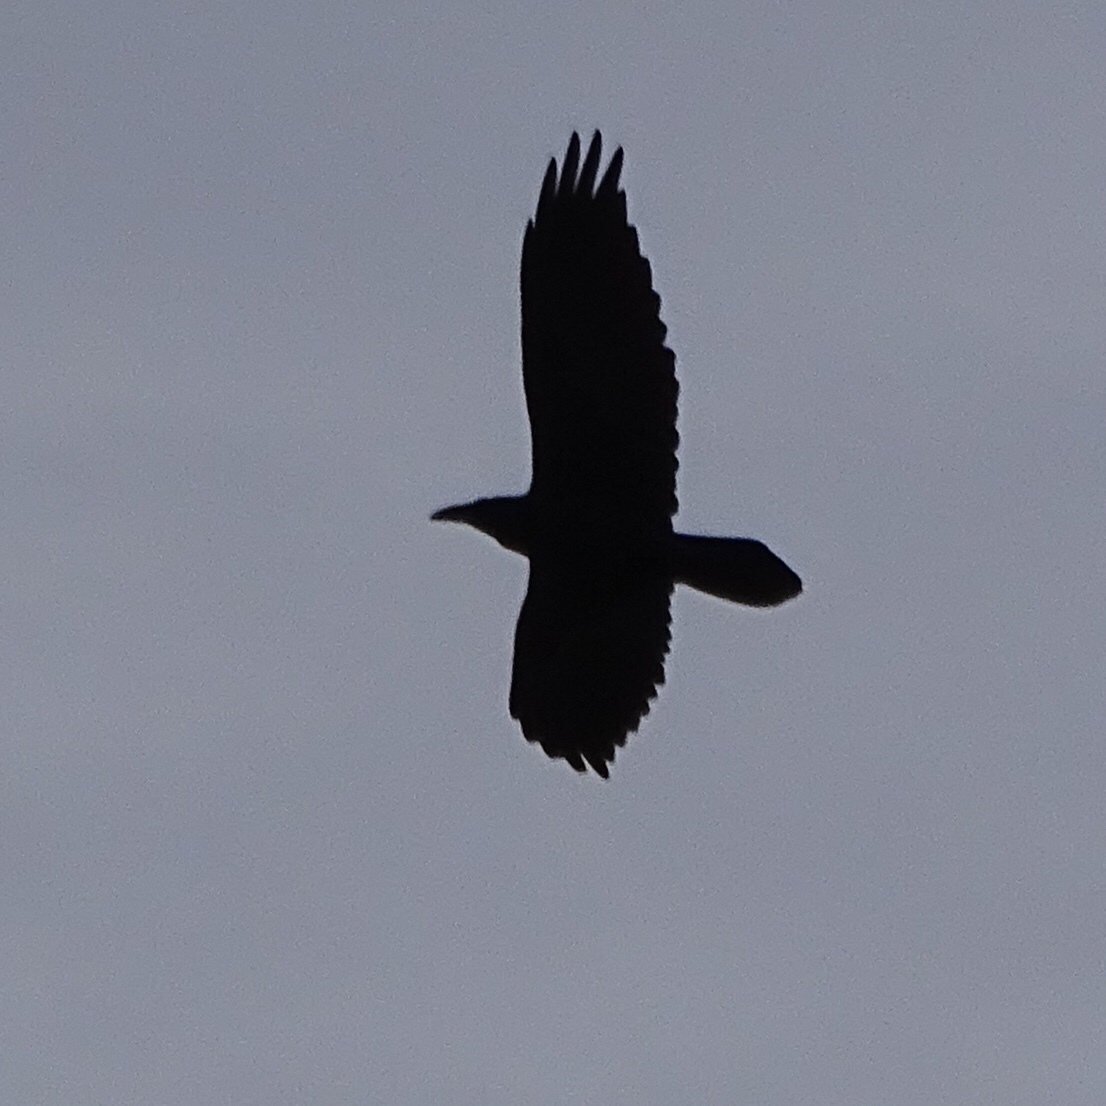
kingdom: Animalia
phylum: Chordata
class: Aves
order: Passeriformes
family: Corvidae
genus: Corvus
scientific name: Corvus corax
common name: Common raven
